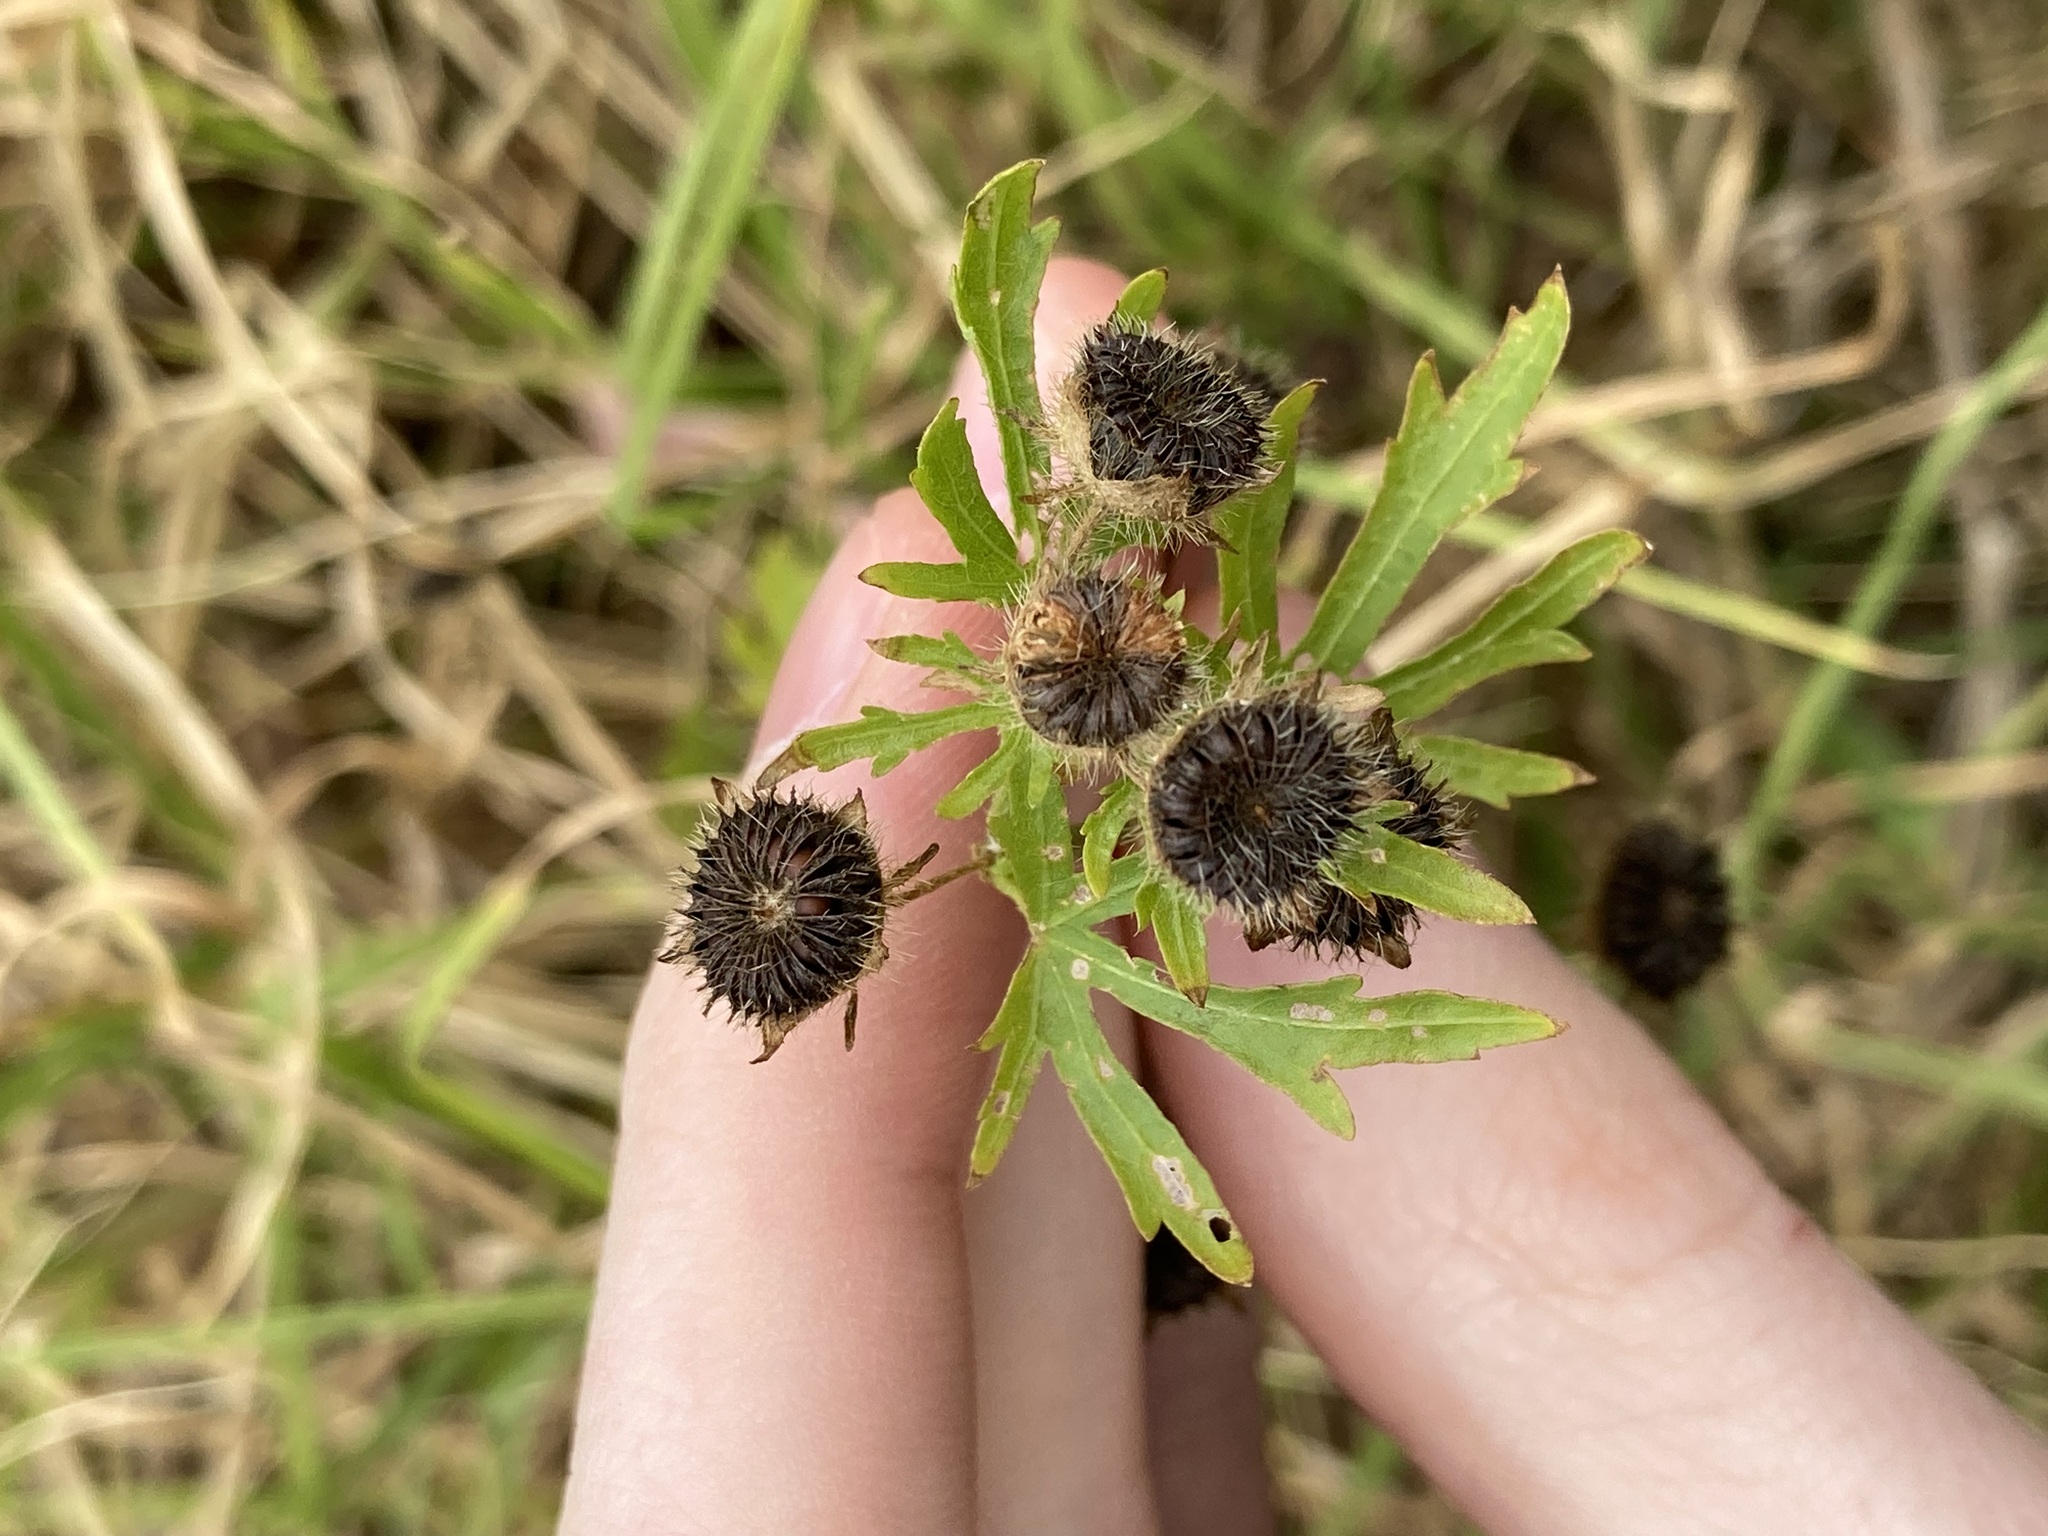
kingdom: Plantae
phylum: Tracheophyta
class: Magnoliopsida
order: Malvales
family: Malvaceae
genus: Modiola
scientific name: Modiola caroliniana
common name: Carolina bristlemallow
